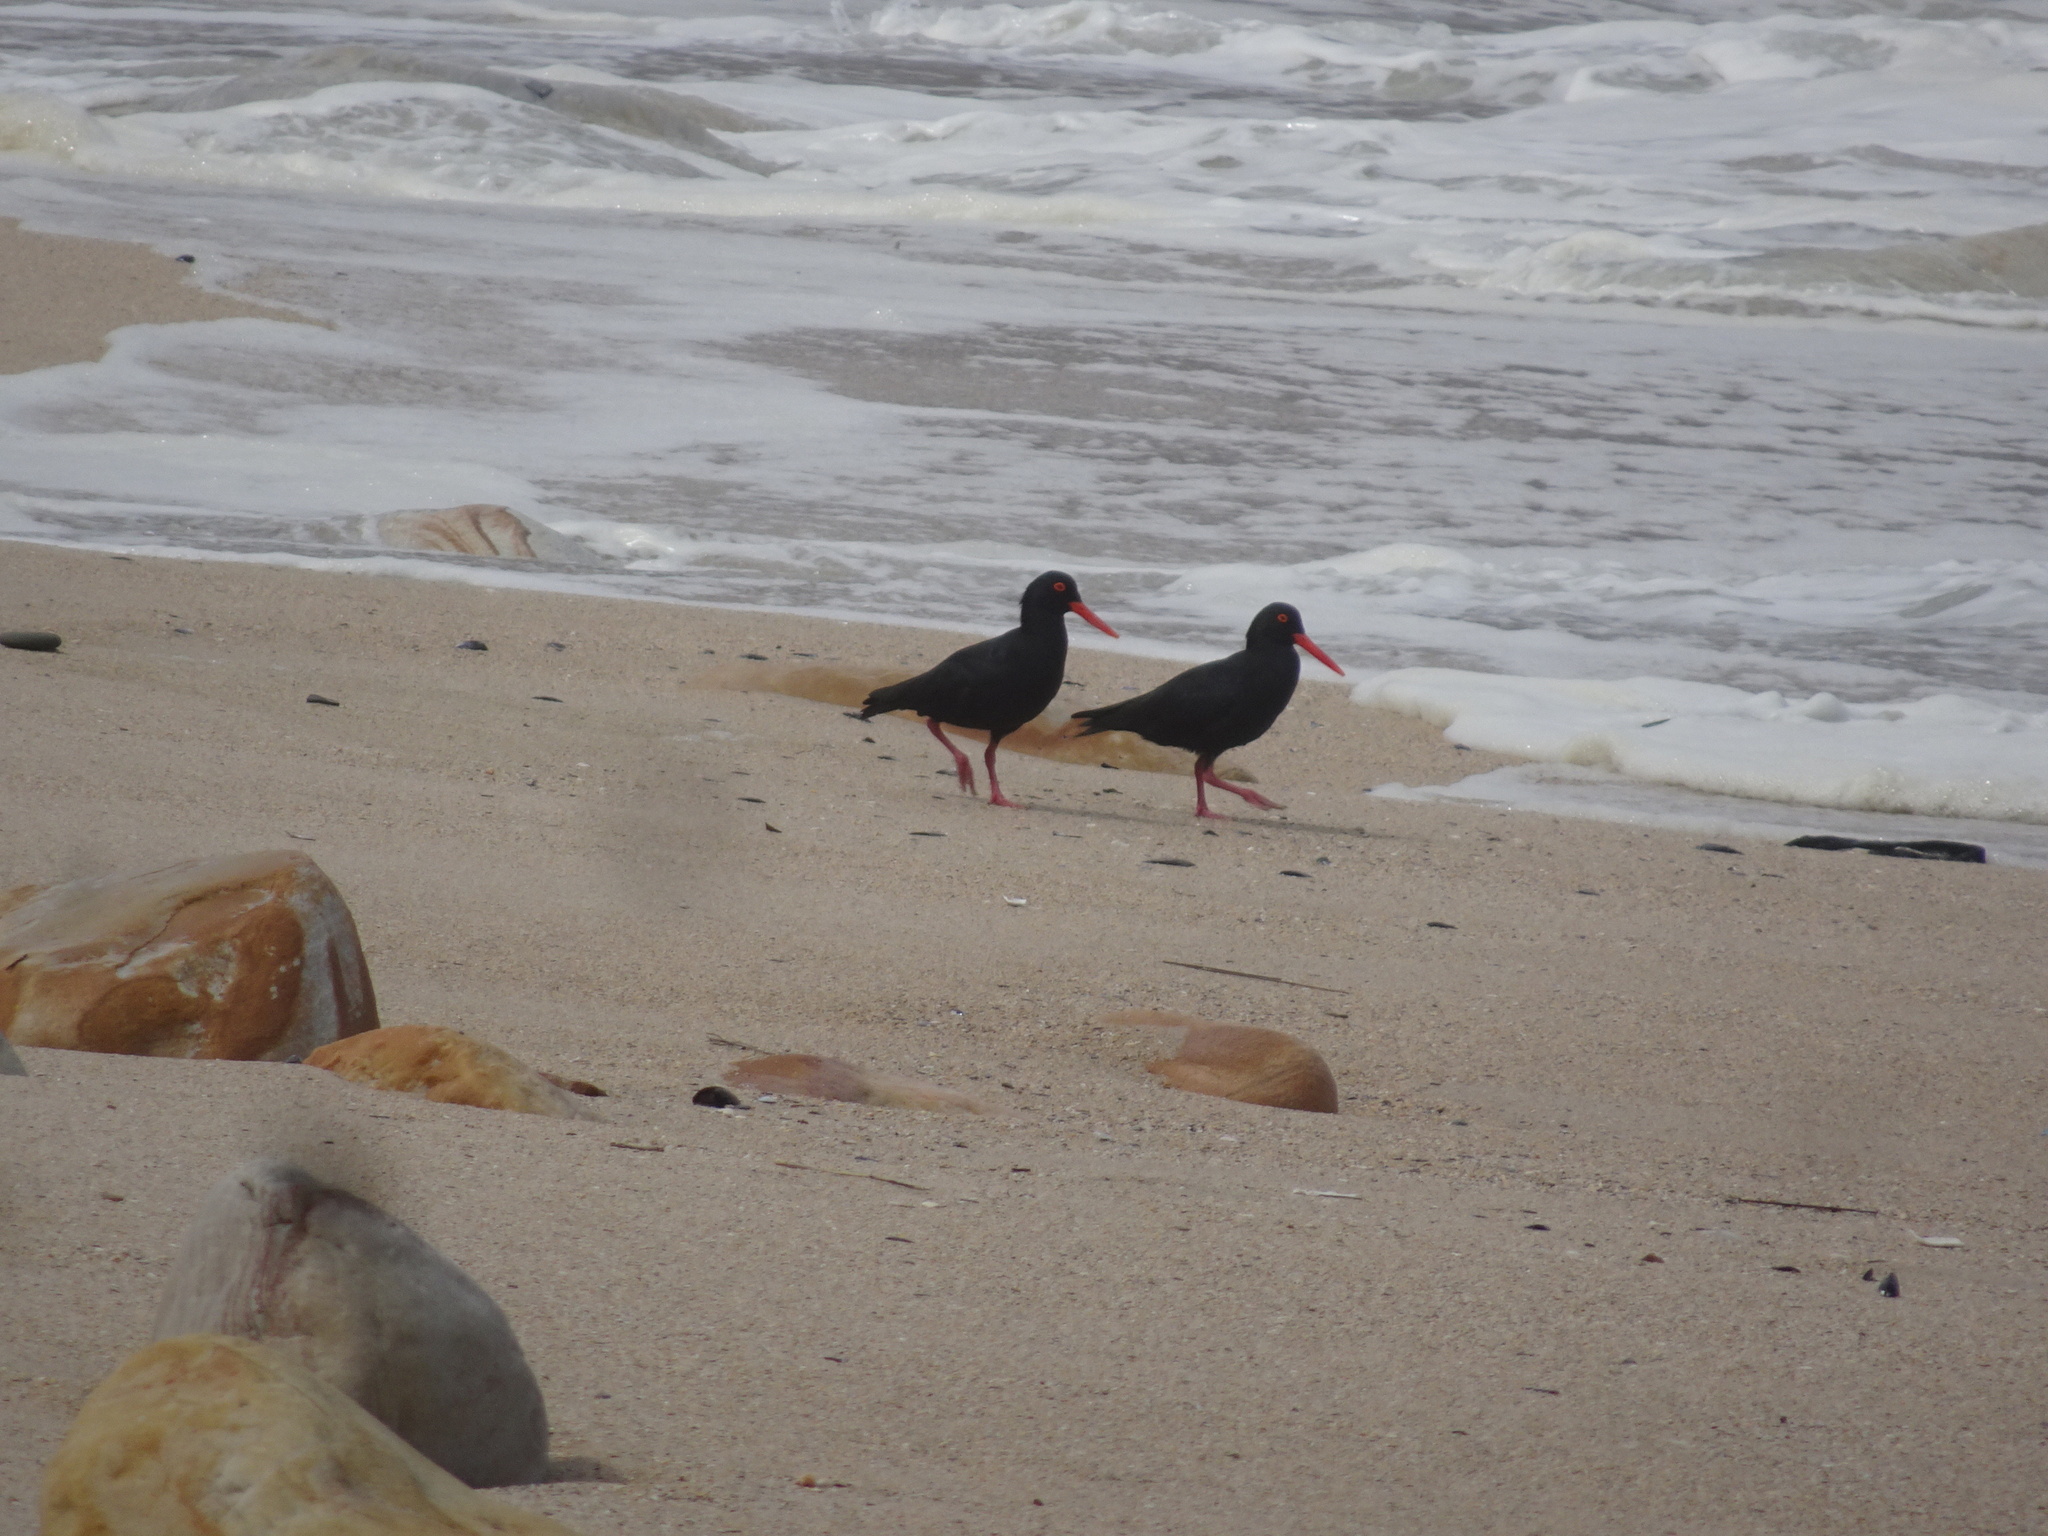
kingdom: Animalia
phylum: Chordata
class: Aves
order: Charadriiformes
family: Haematopodidae
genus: Haematopus
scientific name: Haematopus moquini
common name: African oystercatcher
